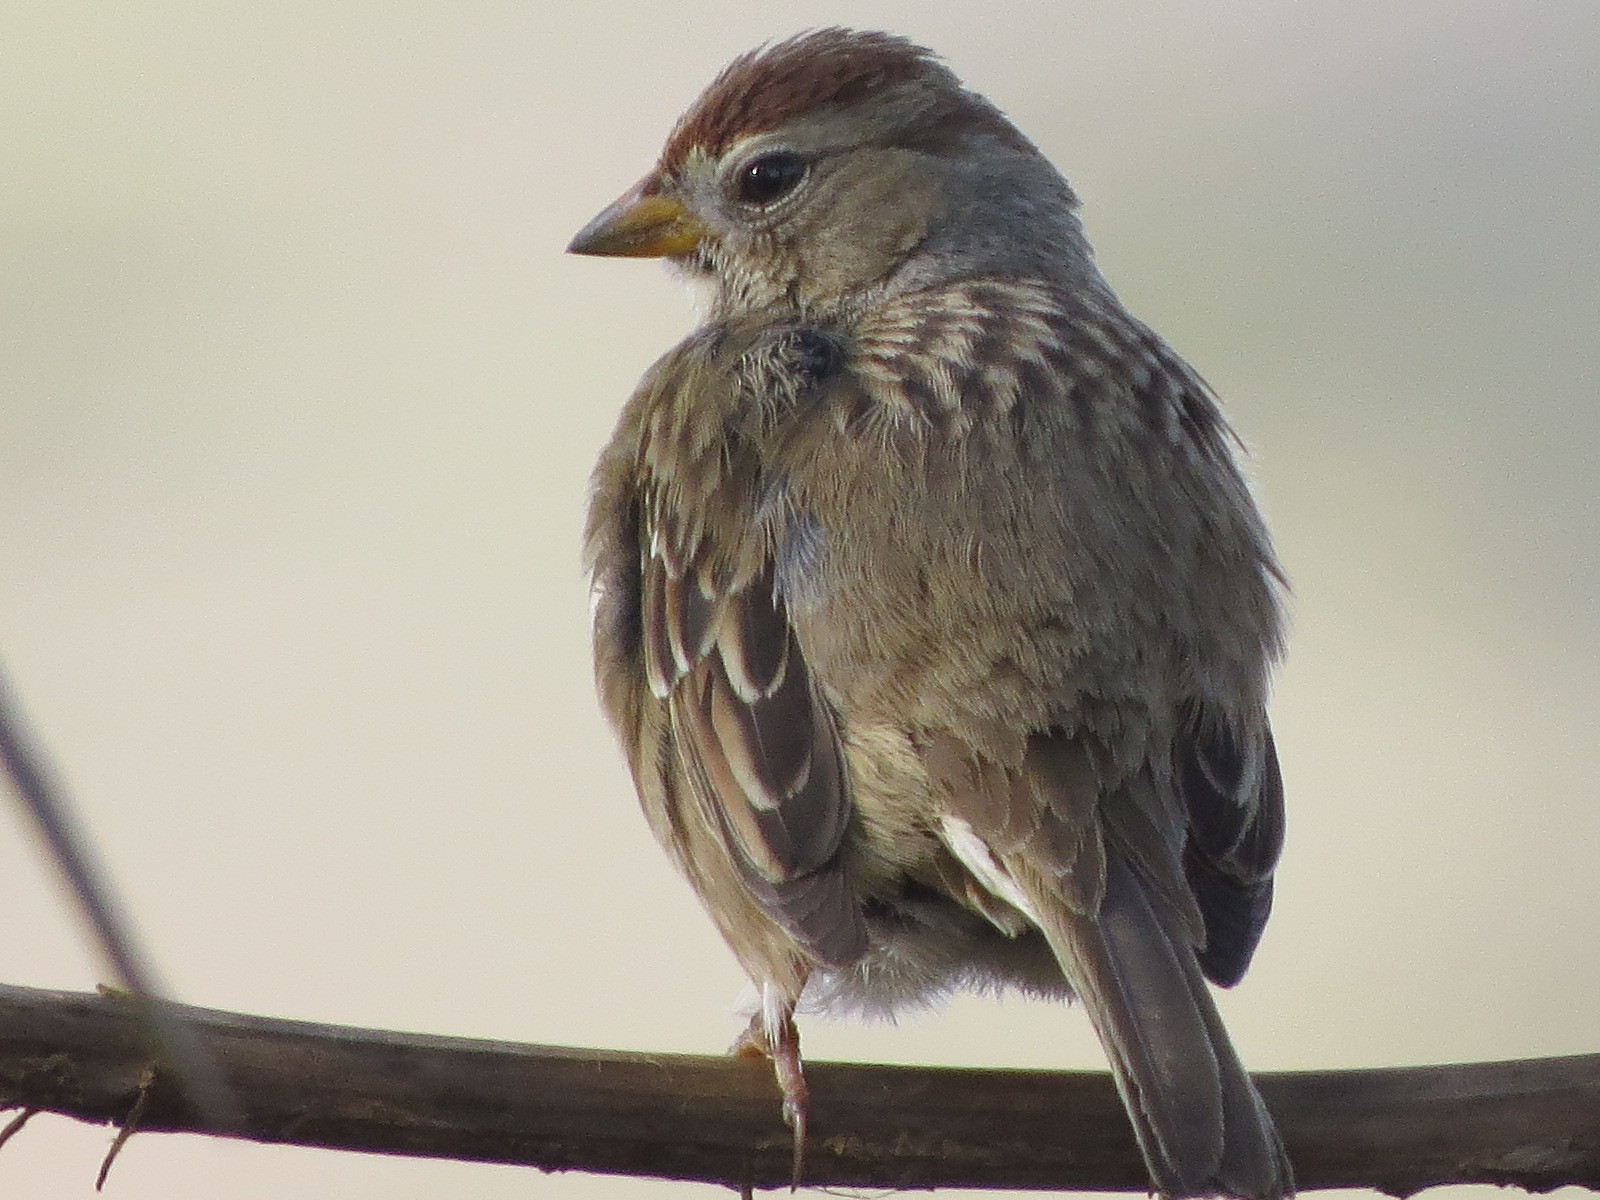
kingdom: Animalia
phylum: Chordata
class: Aves
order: Passeriformes
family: Passerellidae
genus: Zonotrichia
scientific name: Zonotrichia leucophrys
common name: White-crowned sparrow
